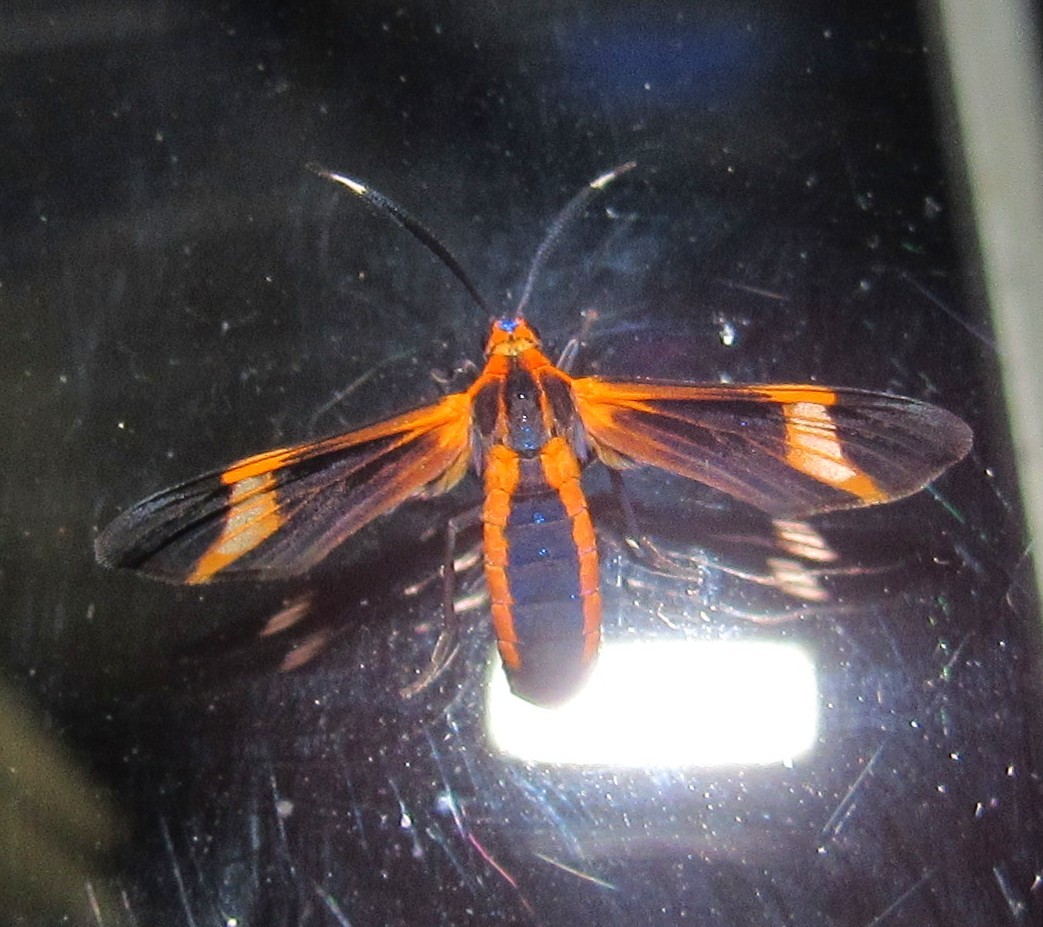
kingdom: Animalia
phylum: Arthropoda
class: Insecta
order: Lepidoptera
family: Erebidae
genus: Dycladia
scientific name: Dycladia lucetius
